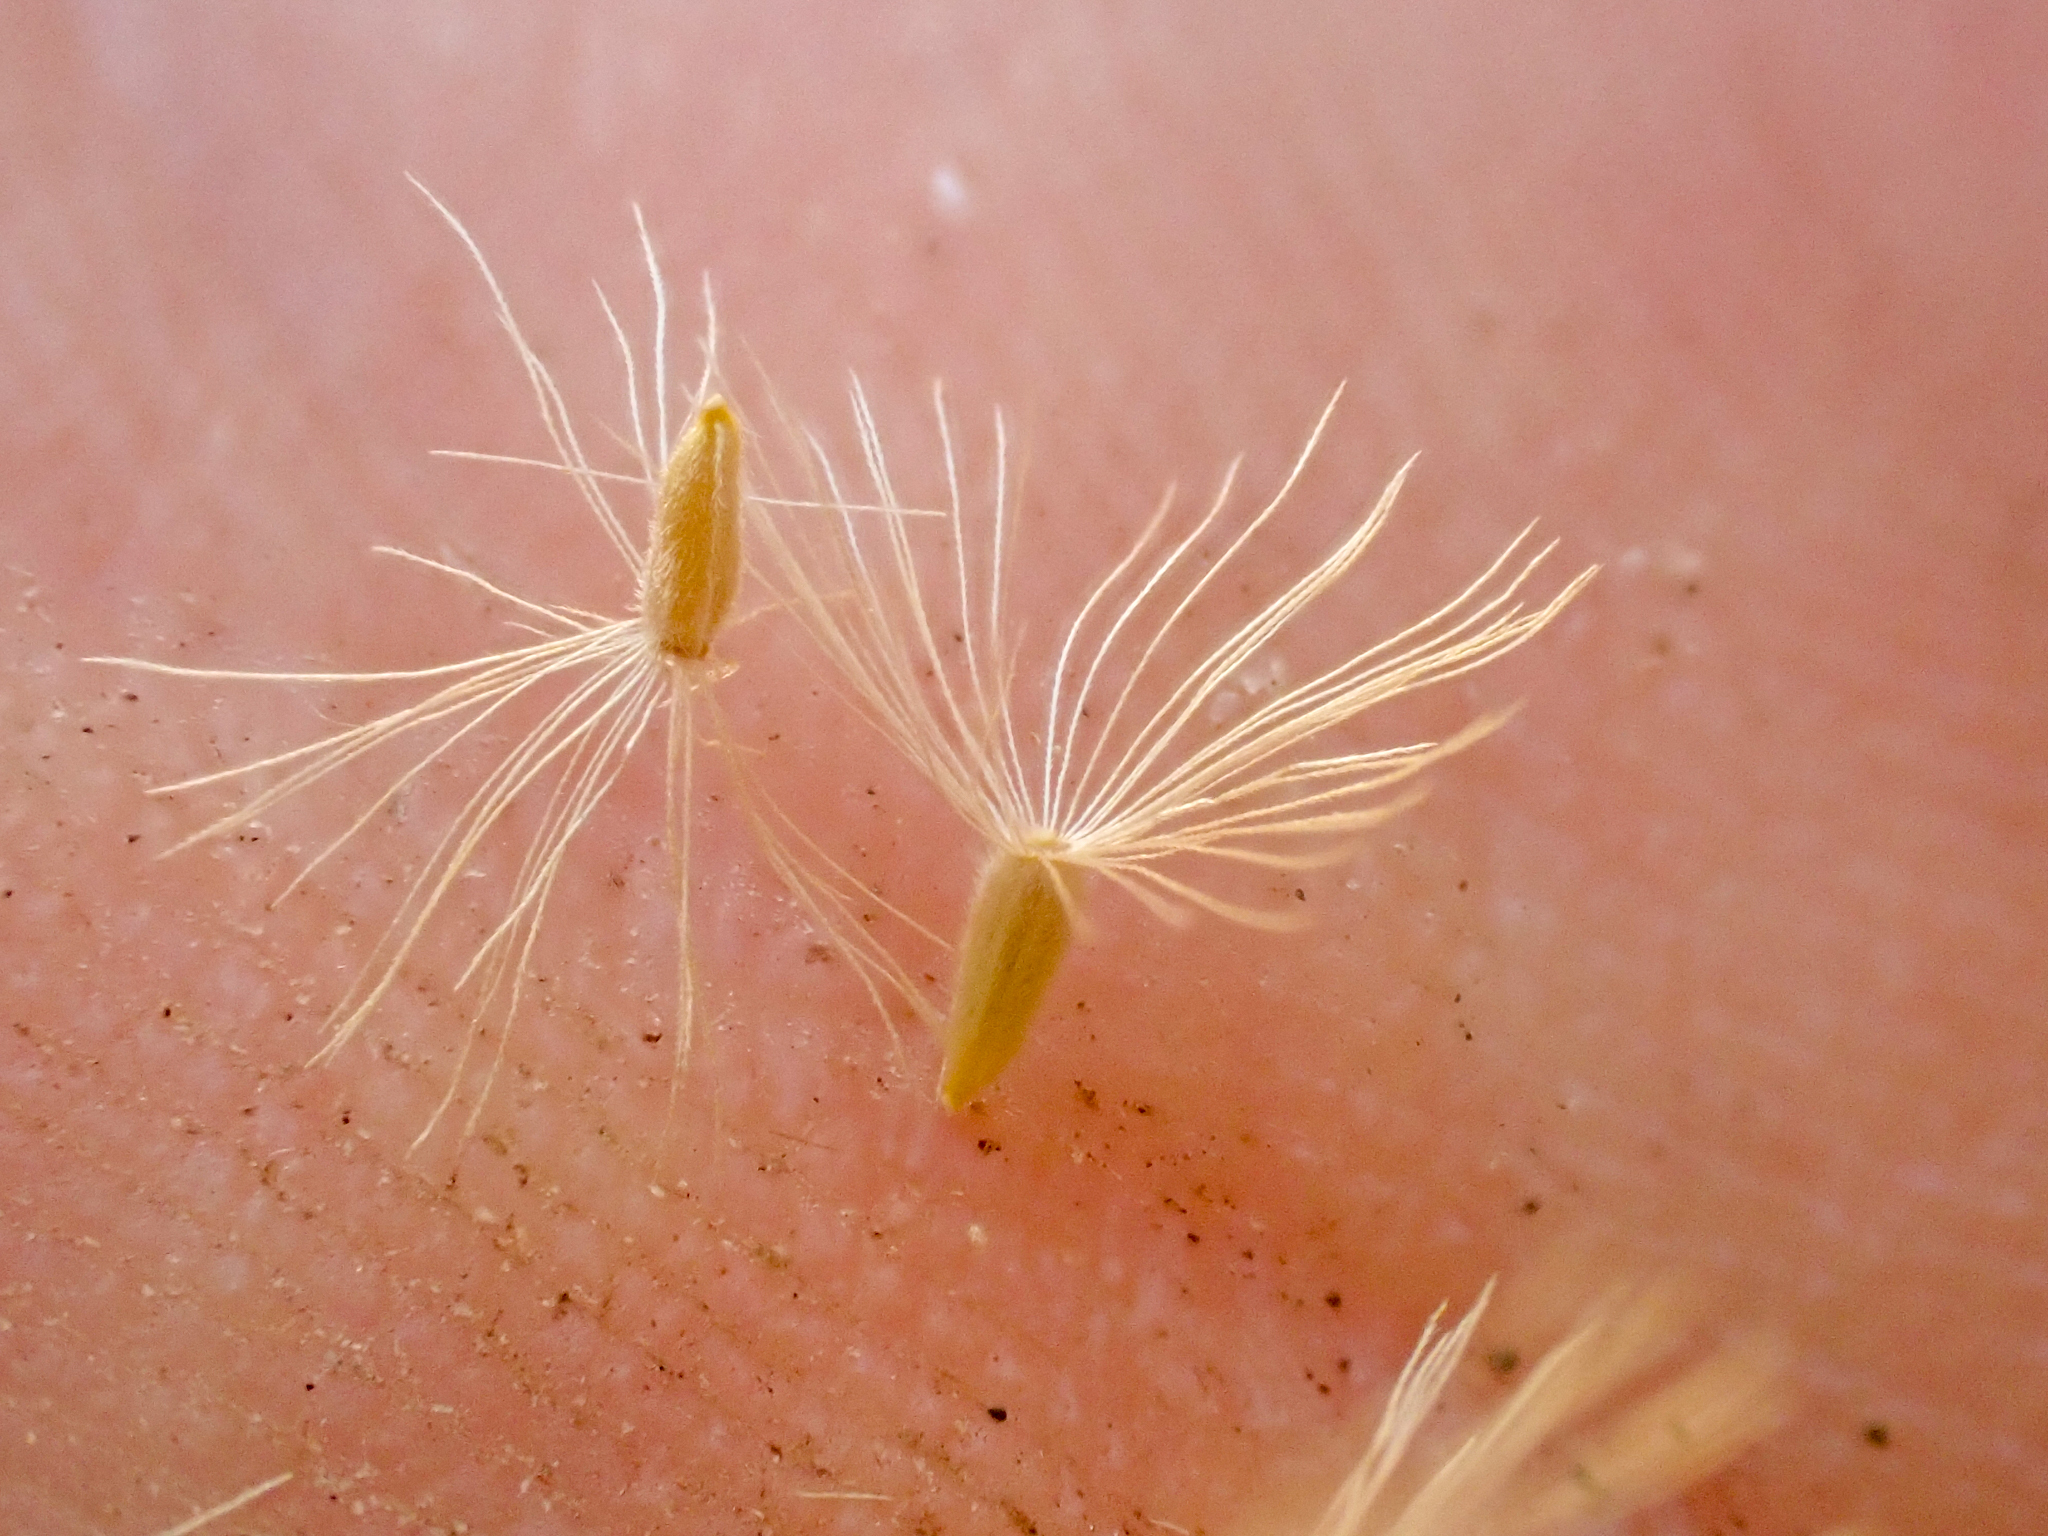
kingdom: Plantae
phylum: Tracheophyta
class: Magnoliopsida
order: Asterales
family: Asteraceae
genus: Ericameria
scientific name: Ericameria arborescens
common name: Goldenfleece
